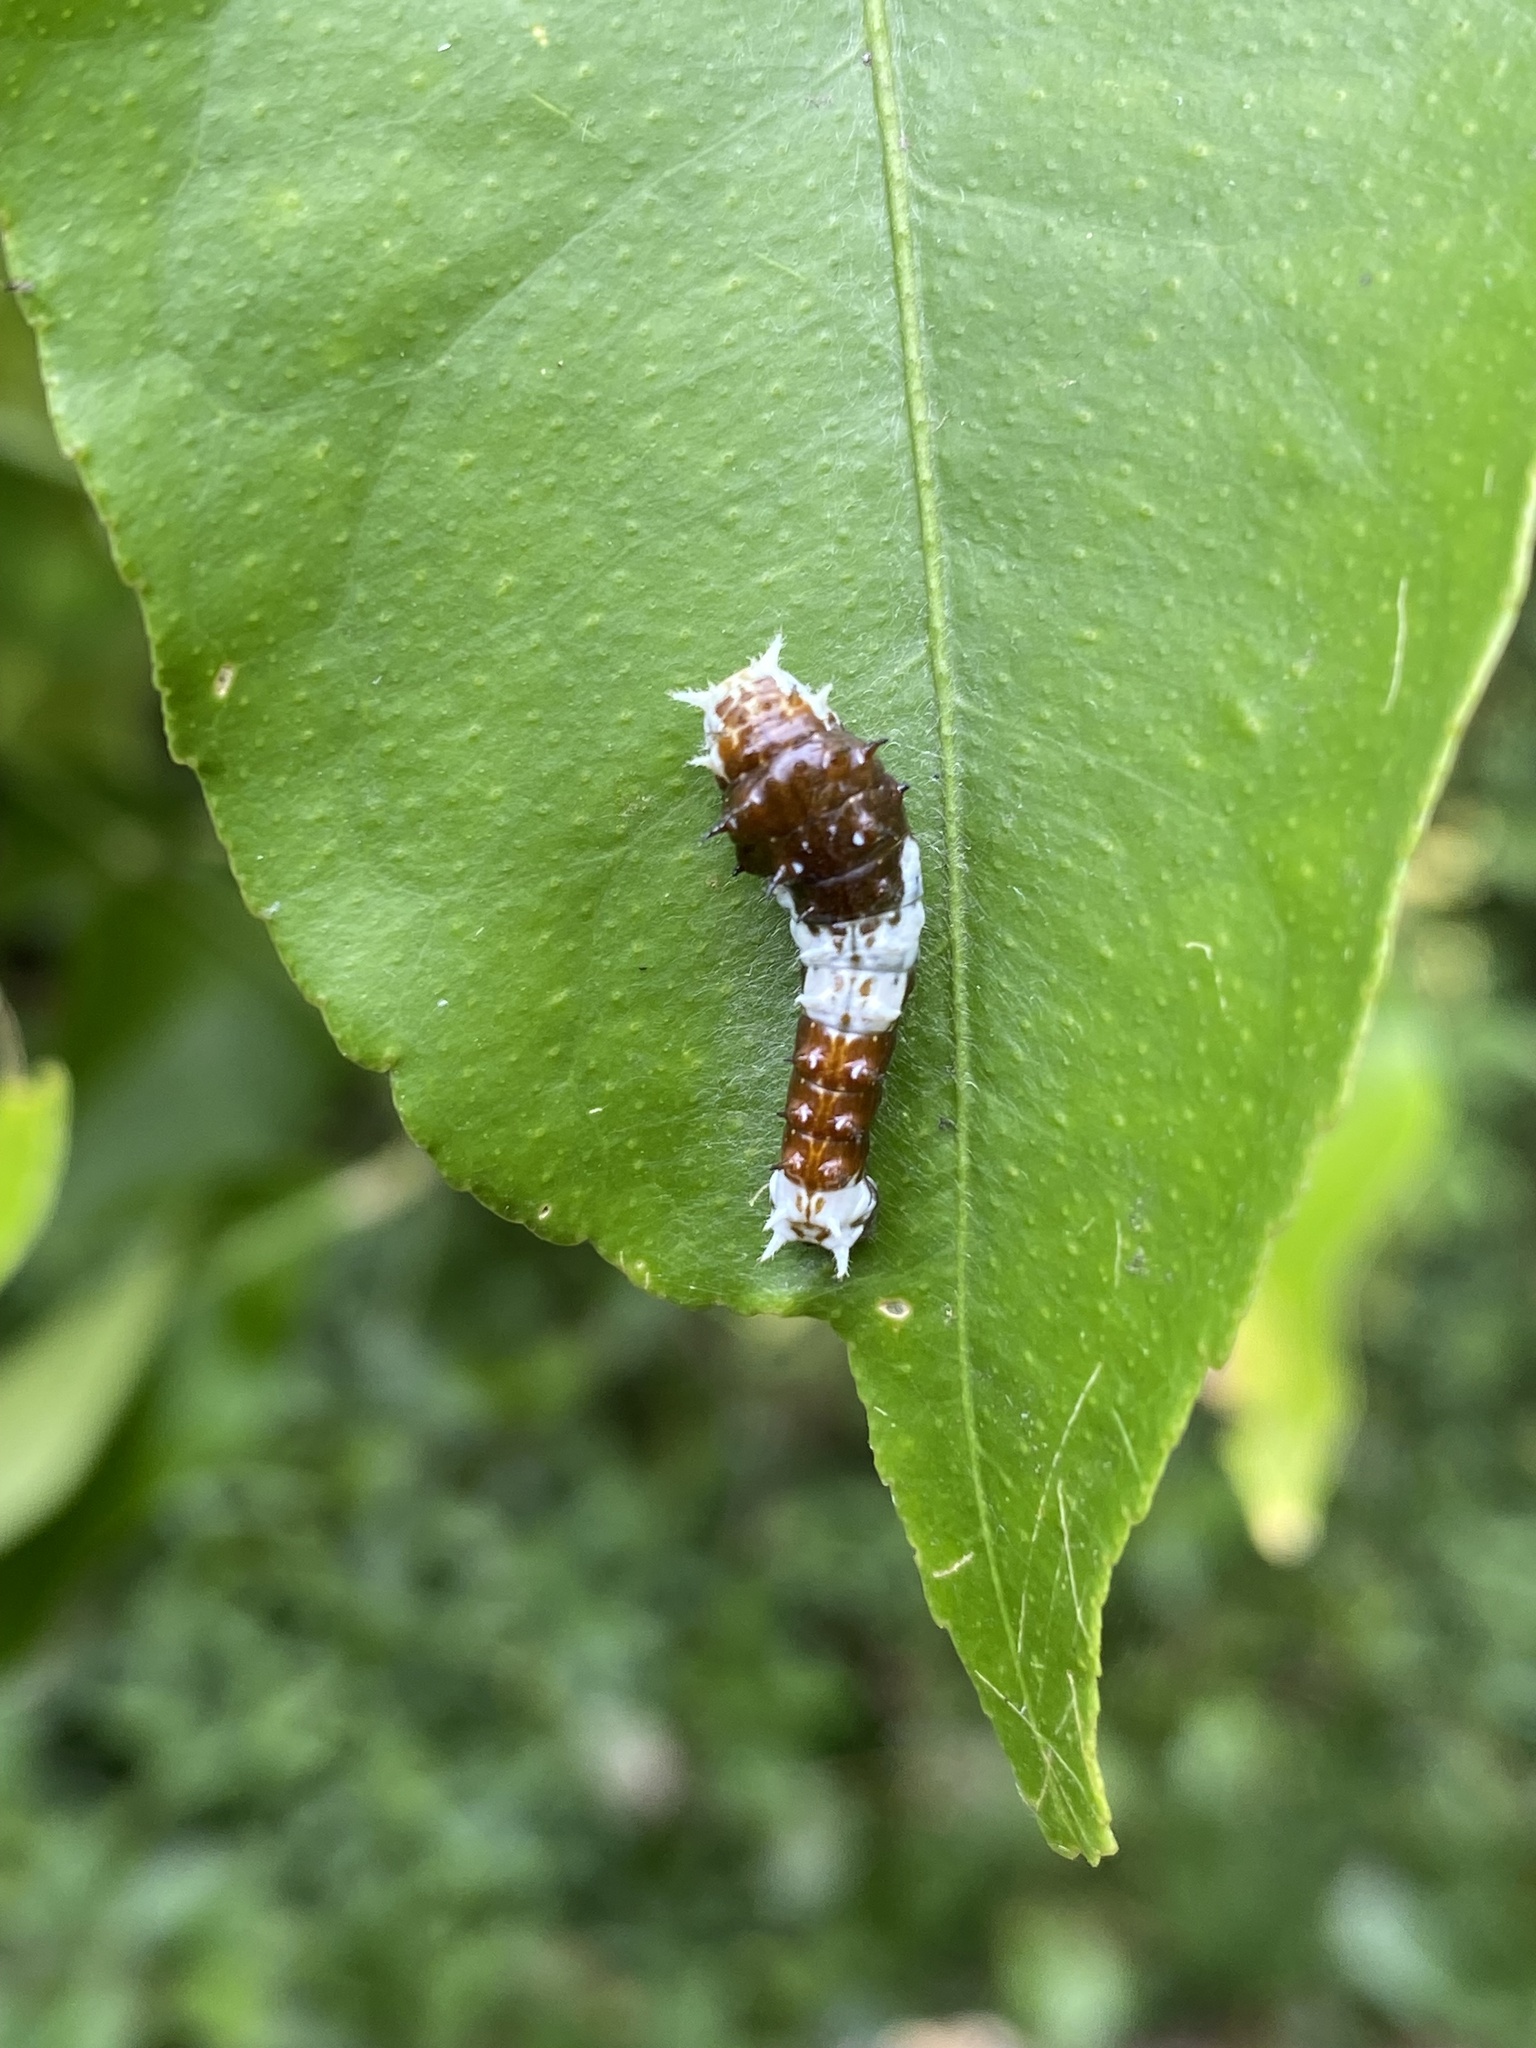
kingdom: Animalia
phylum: Arthropoda
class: Insecta
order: Lepidoptera
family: Papilionidae
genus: Papilio
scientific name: Papilio aegeus
